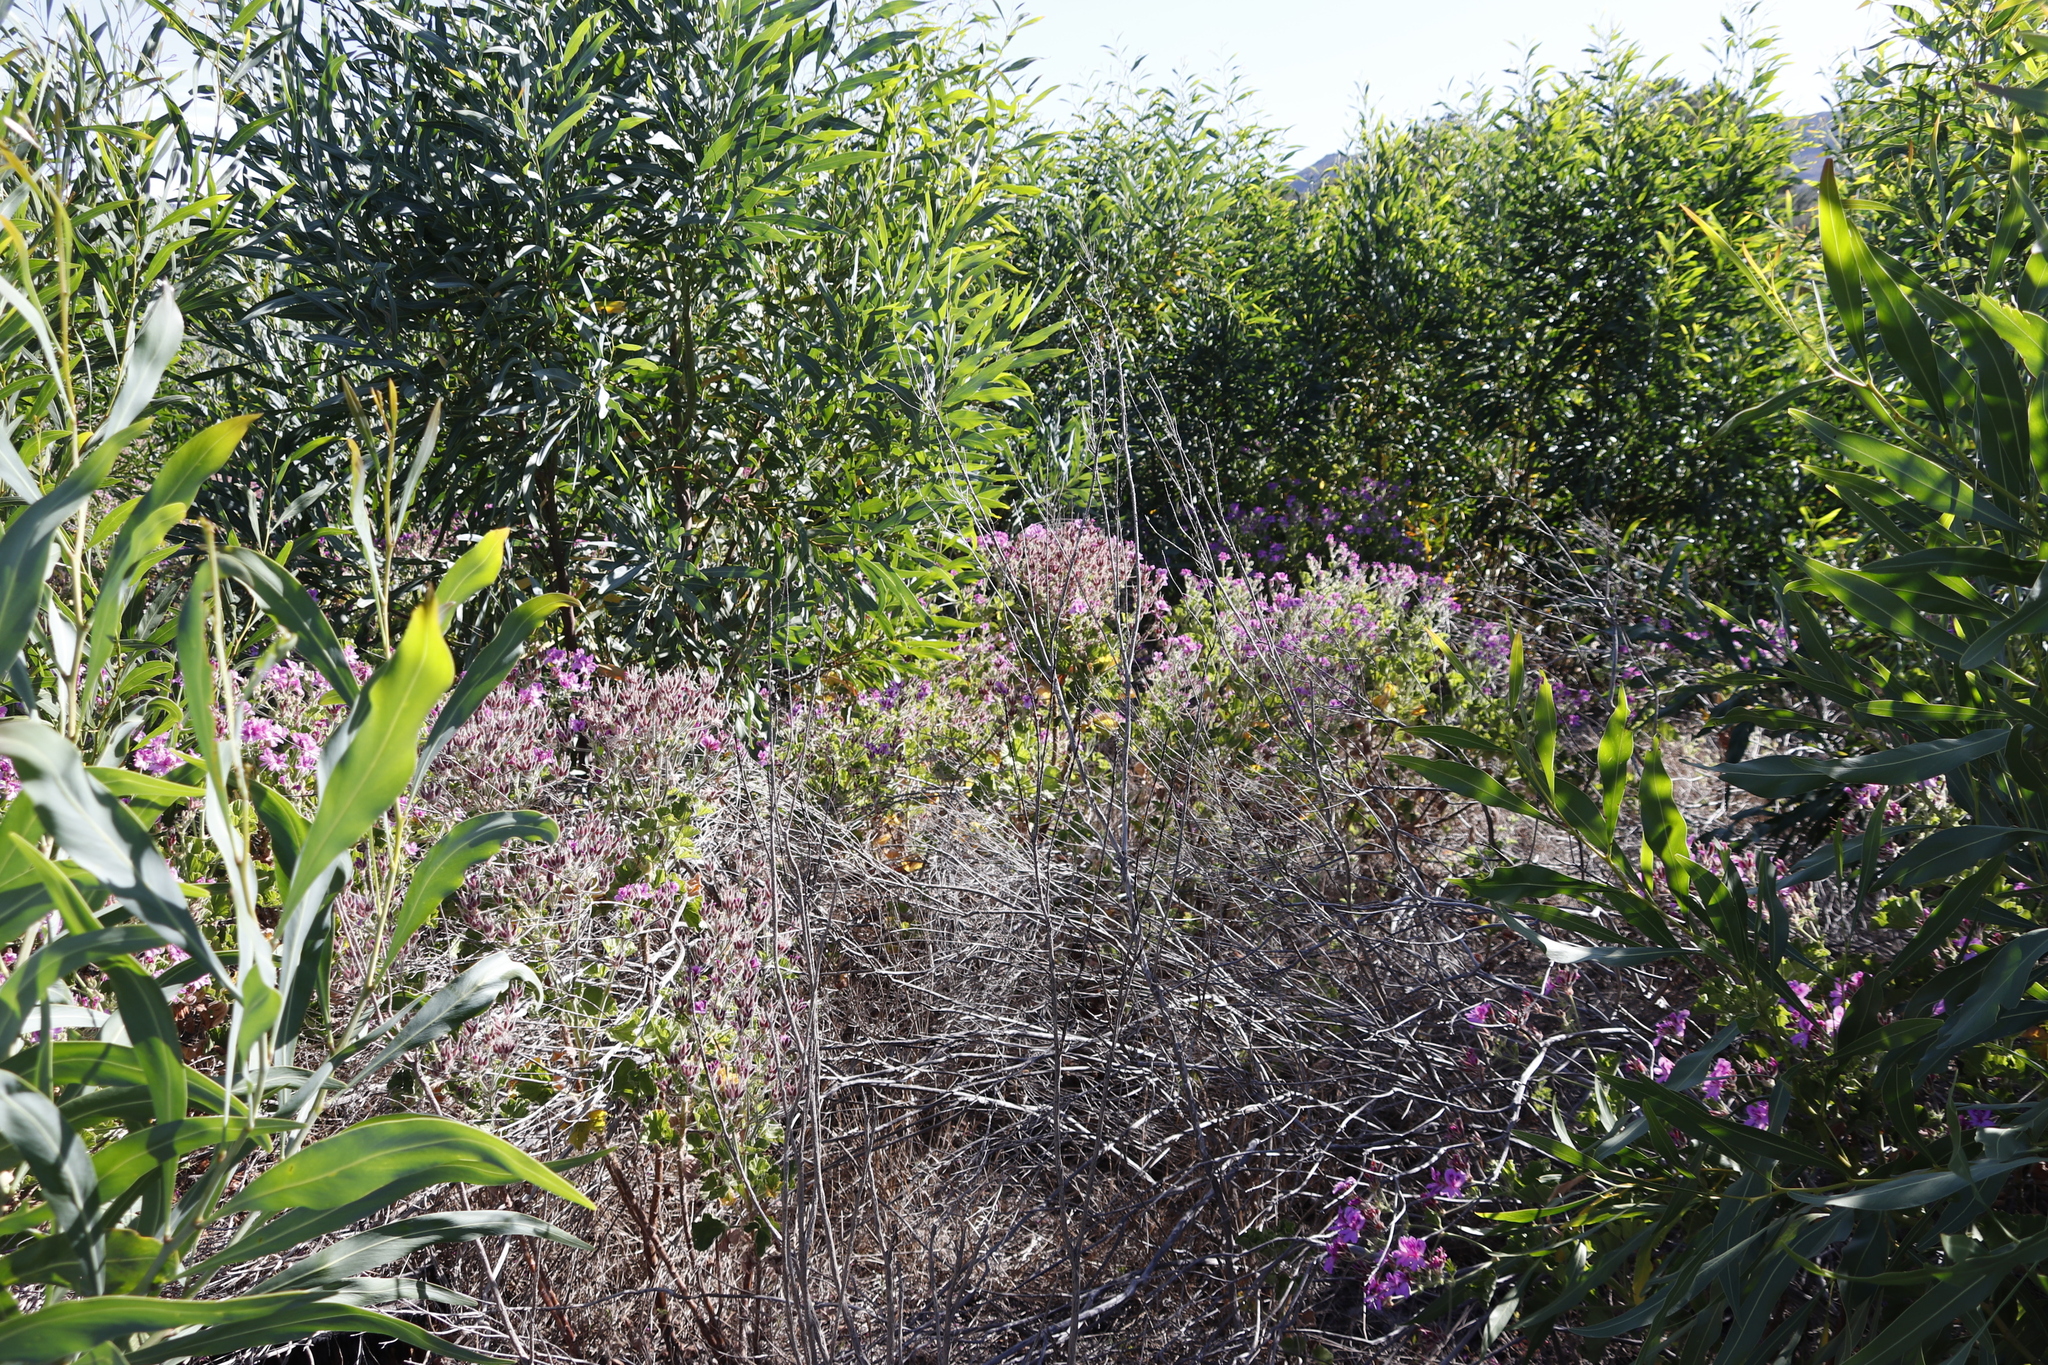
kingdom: Plantae
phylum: Tracheophyta
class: Magnoliopsida
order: Geraniales
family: Geraniaceae
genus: Pelargonium
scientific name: Pelargonium cucullatum
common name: Tree pelargonium
